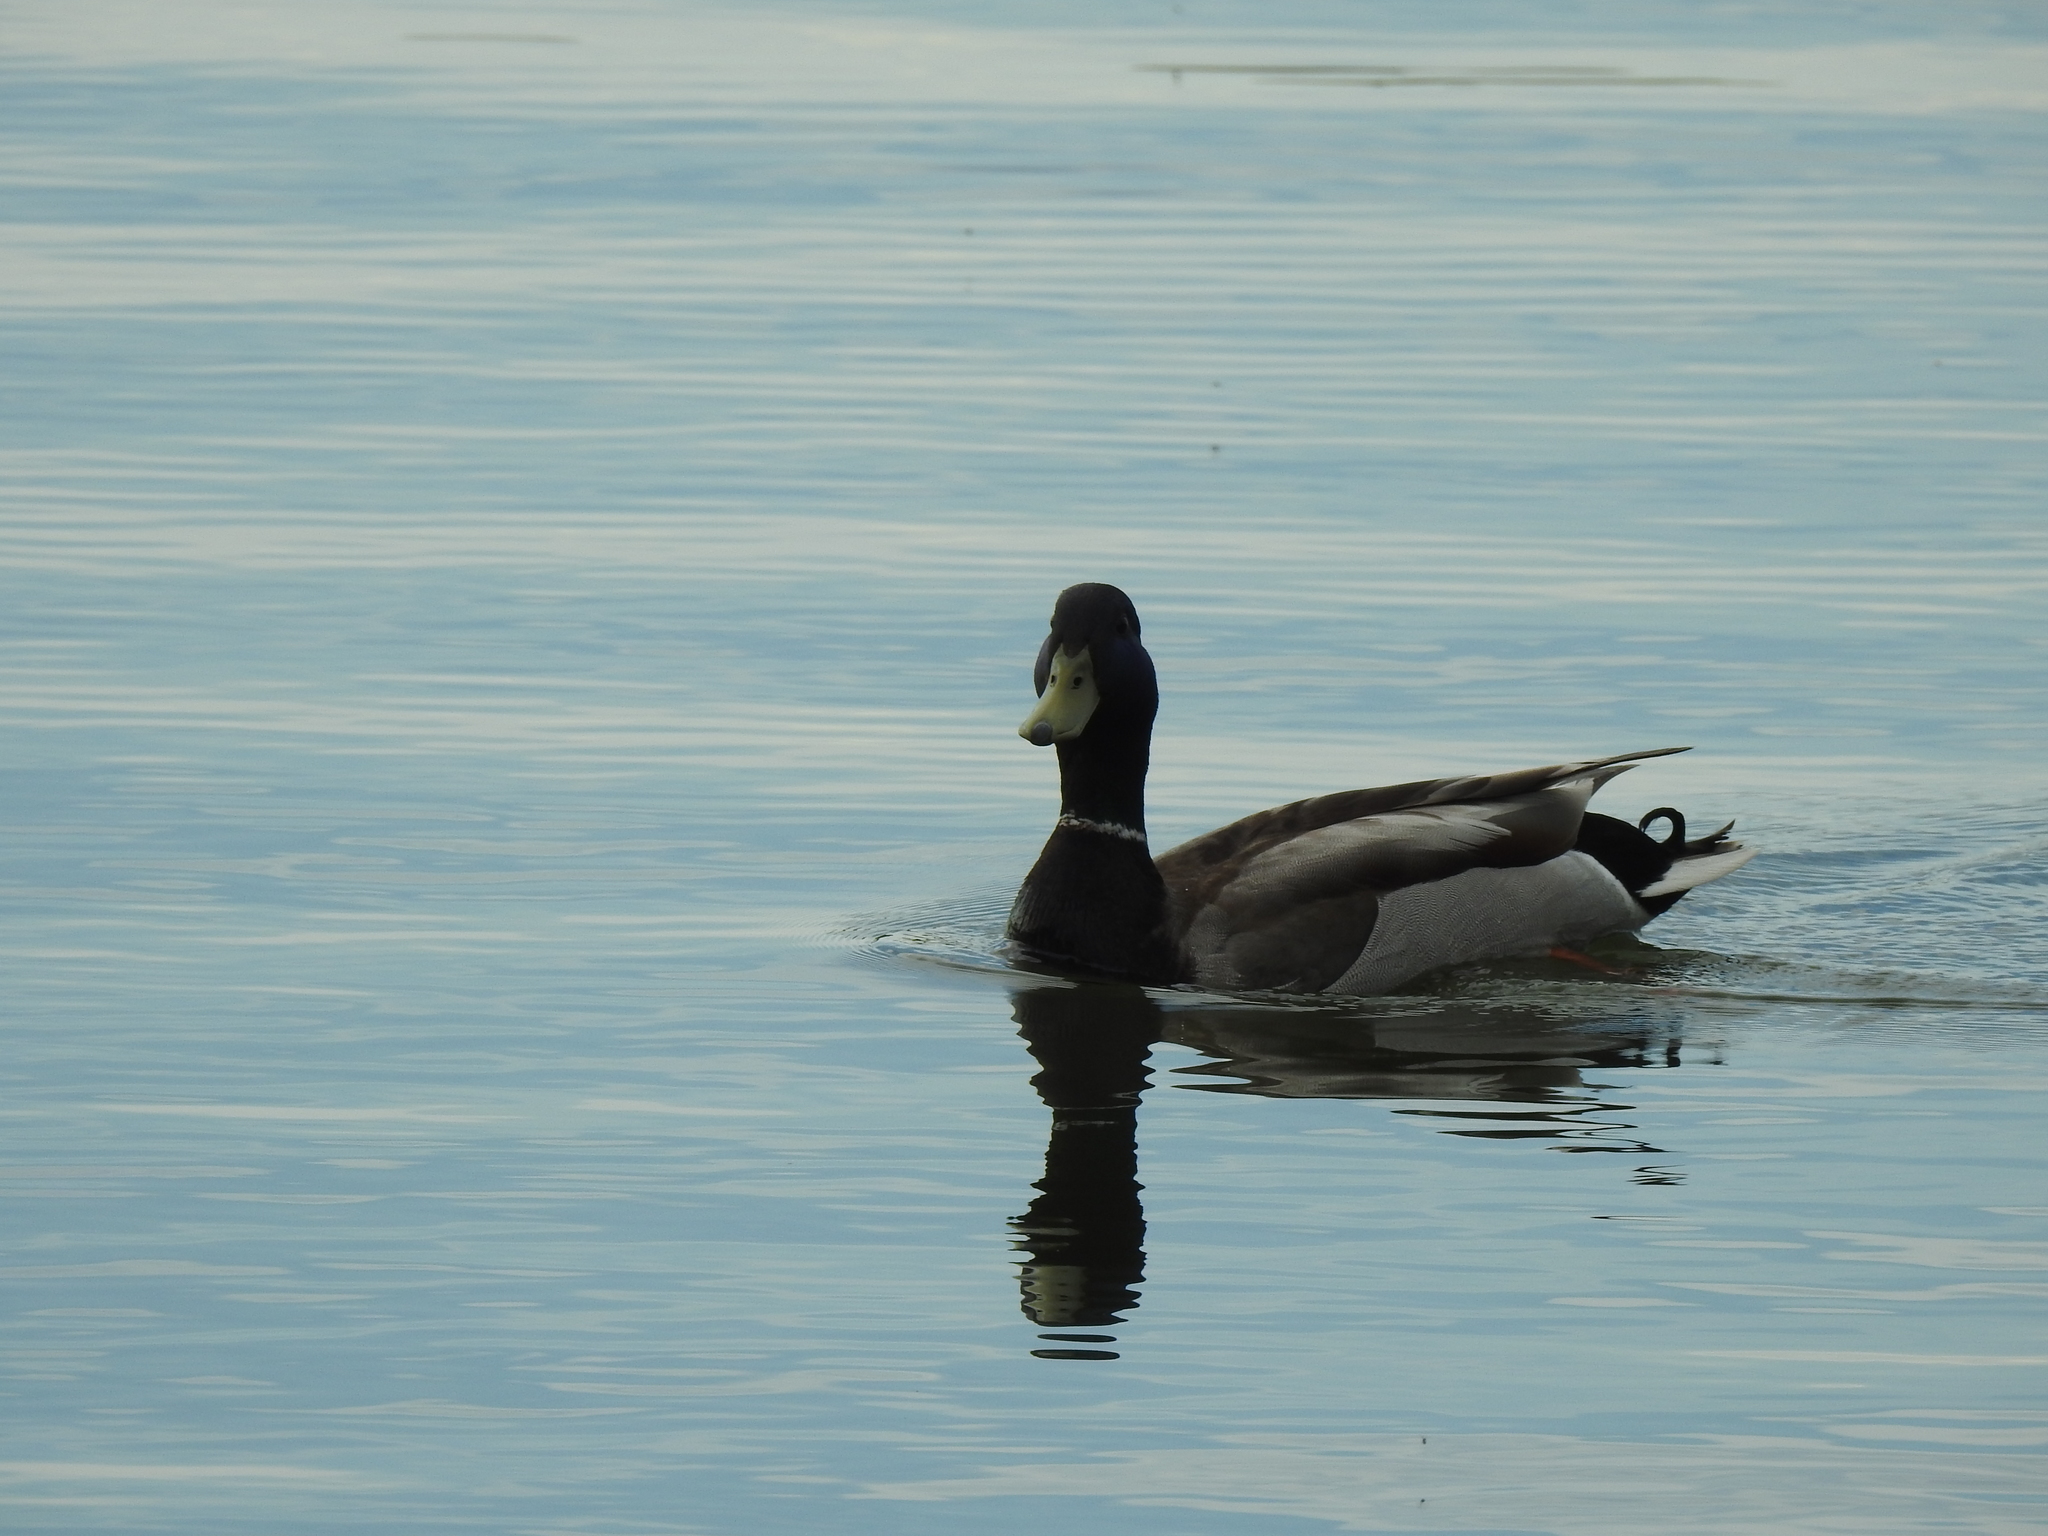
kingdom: Animalia
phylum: Chordata
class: Aves
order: Anseriformes
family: Anatidae
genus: Anas
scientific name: Anas platyrhynchos
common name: Mallard
